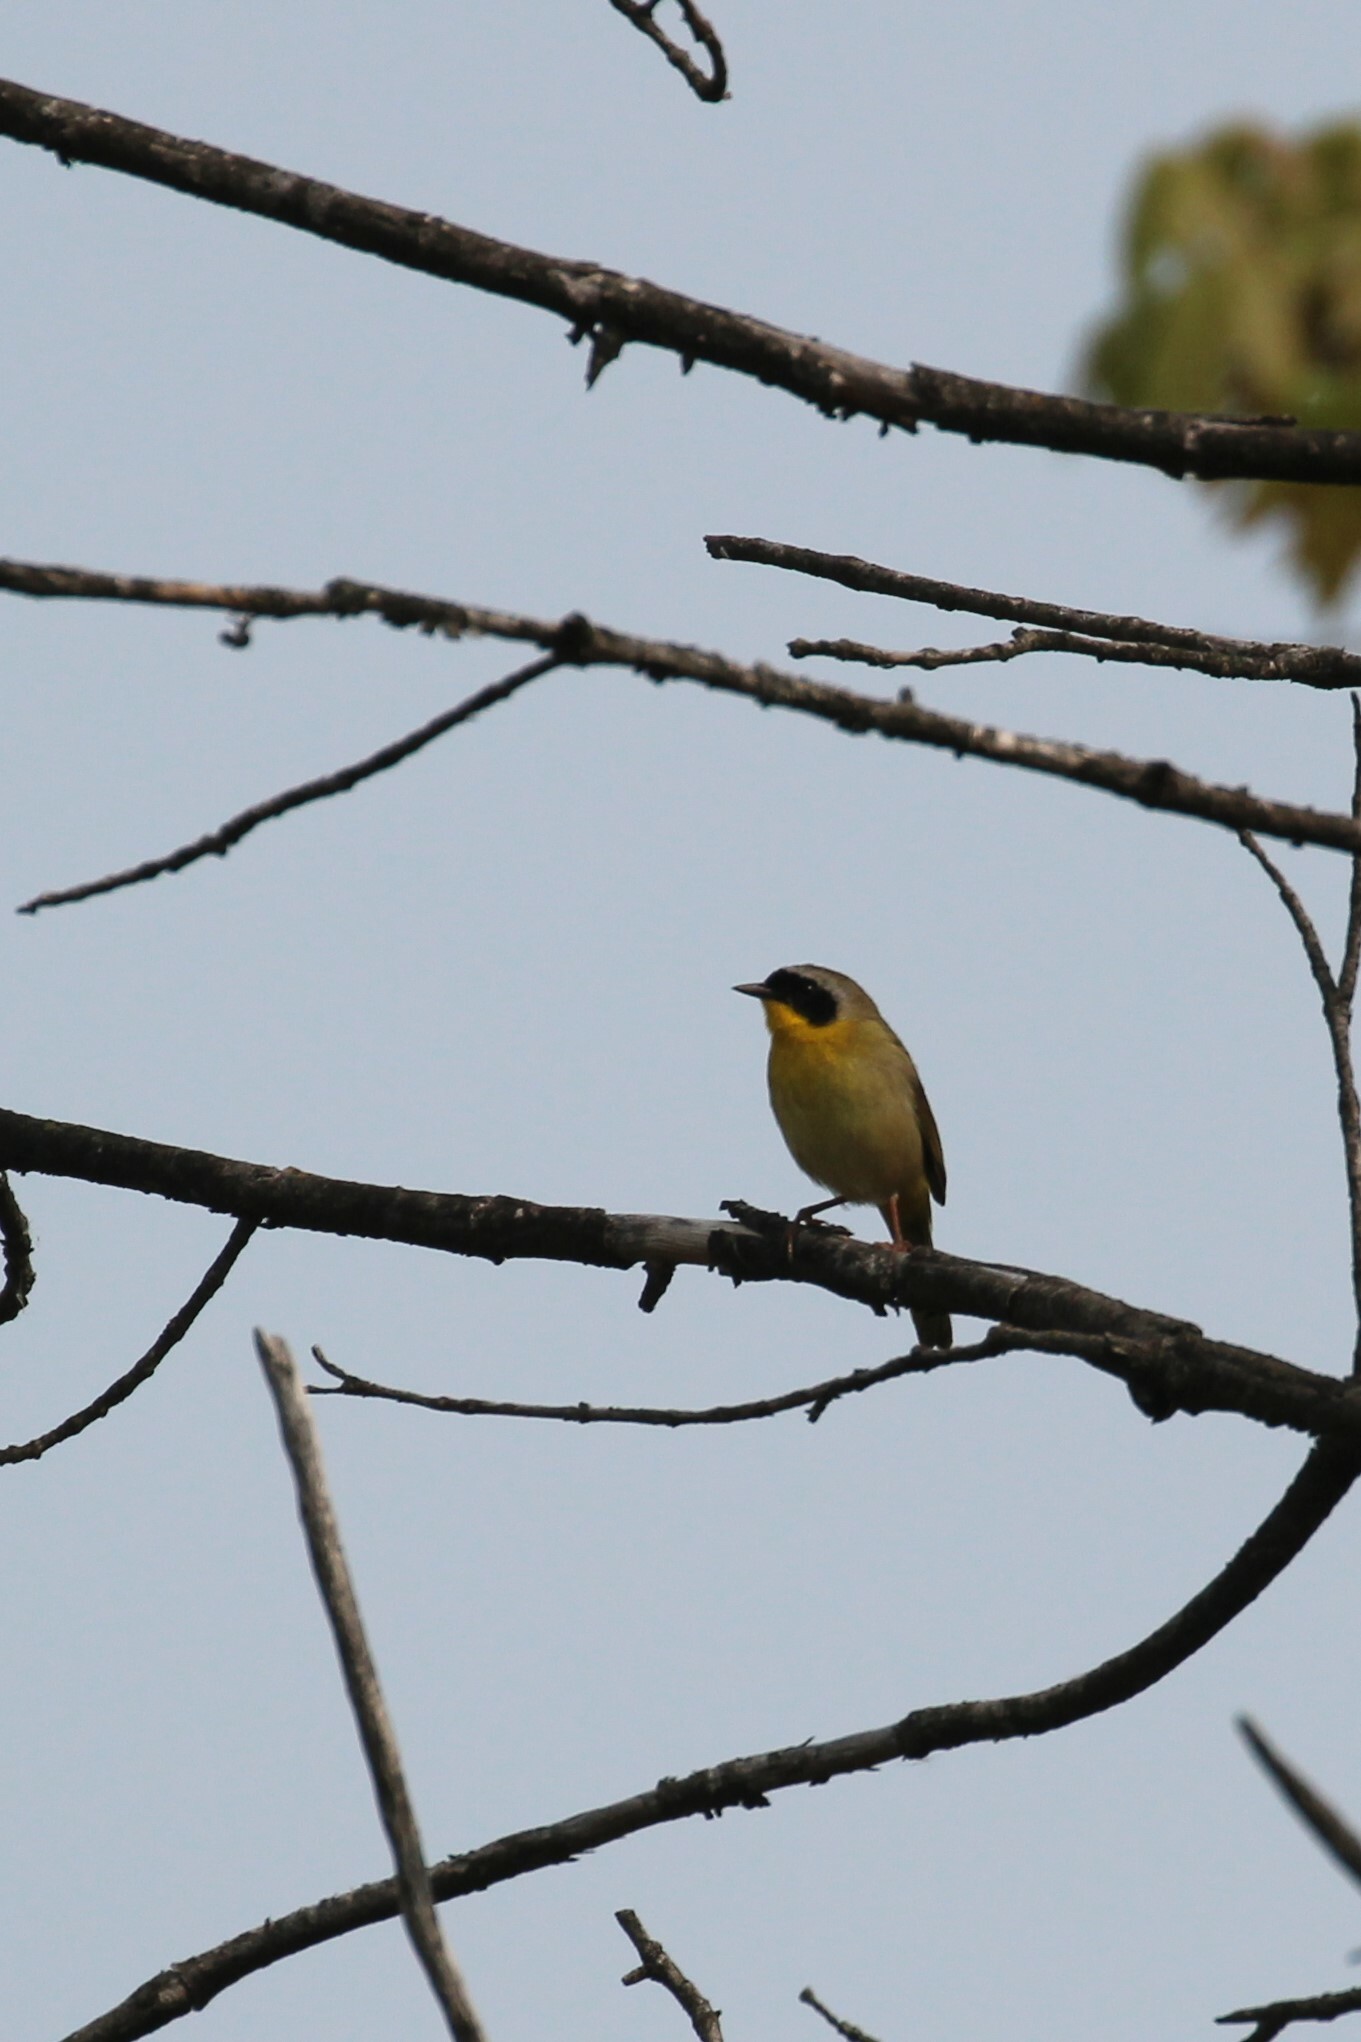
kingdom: Animalia
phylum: Chordata
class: Aves
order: Passeriformes
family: Parulidae
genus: Geothlypis
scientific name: Geothlypis trichas
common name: Common yellowthroat
